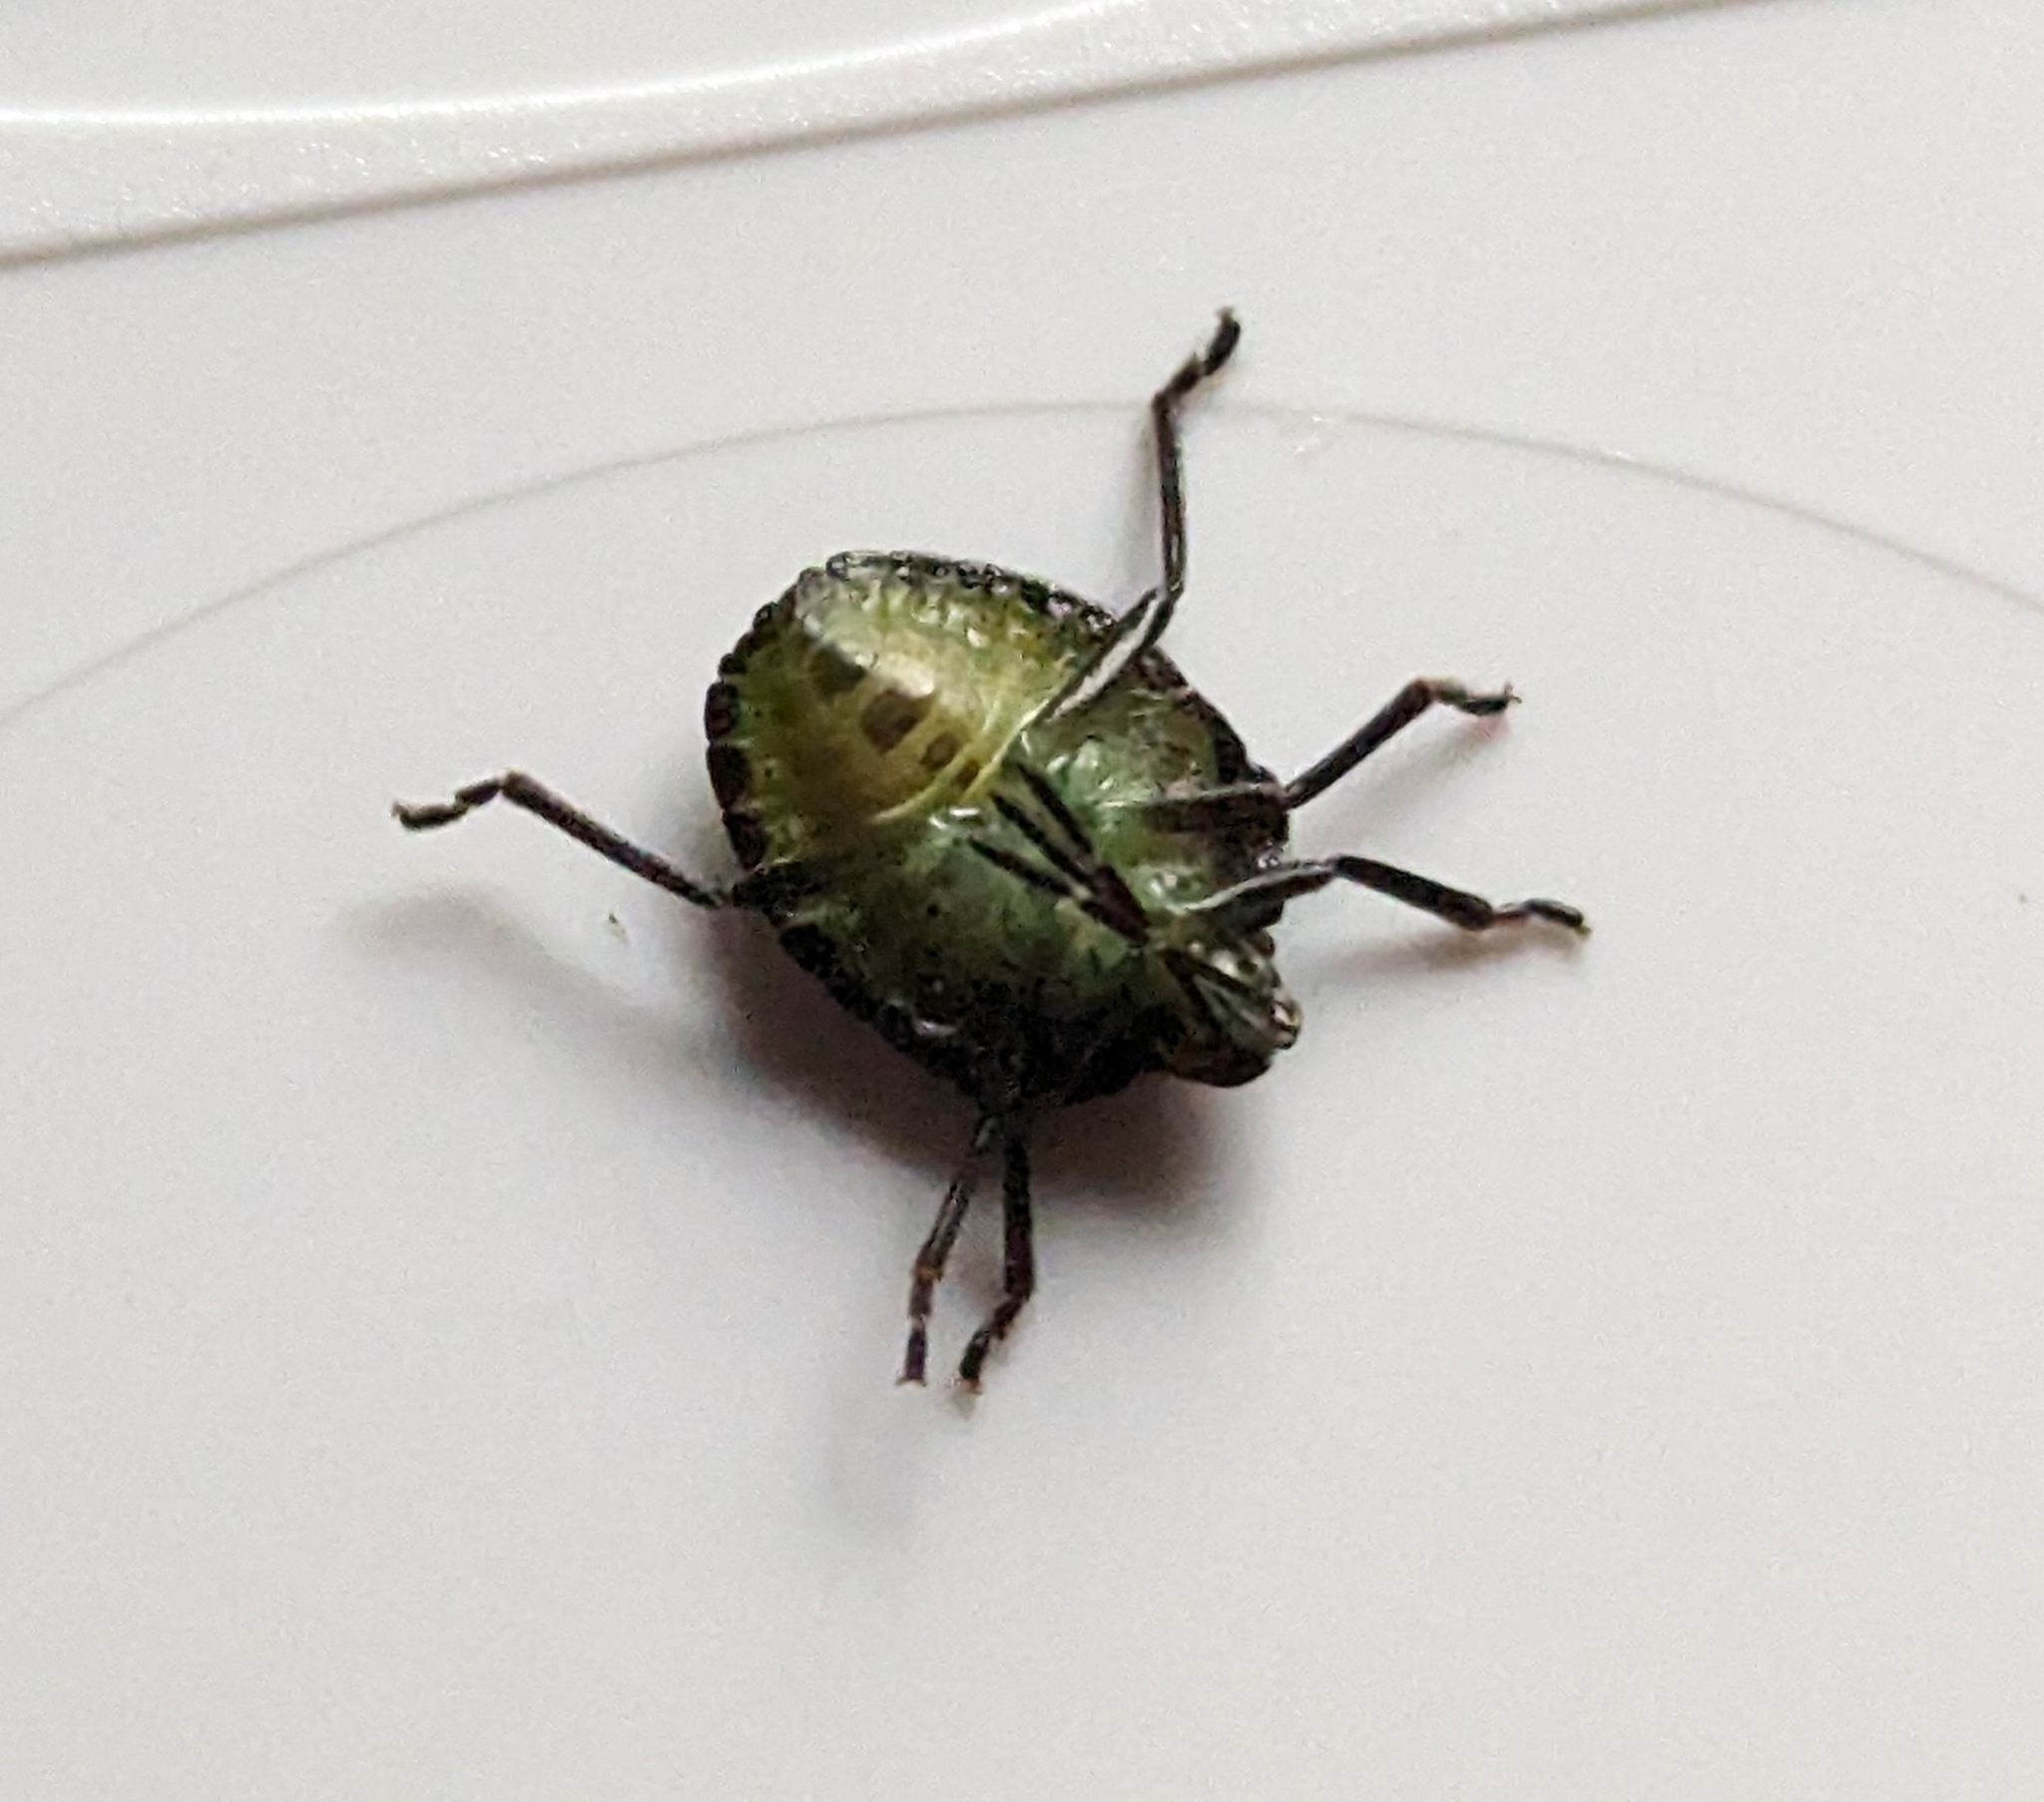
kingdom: Animalia
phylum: Arthropoda
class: Insecta
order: Hemiptera
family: Pentatomidae
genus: Palomena
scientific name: Palomena prasina
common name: Green shieldbug
